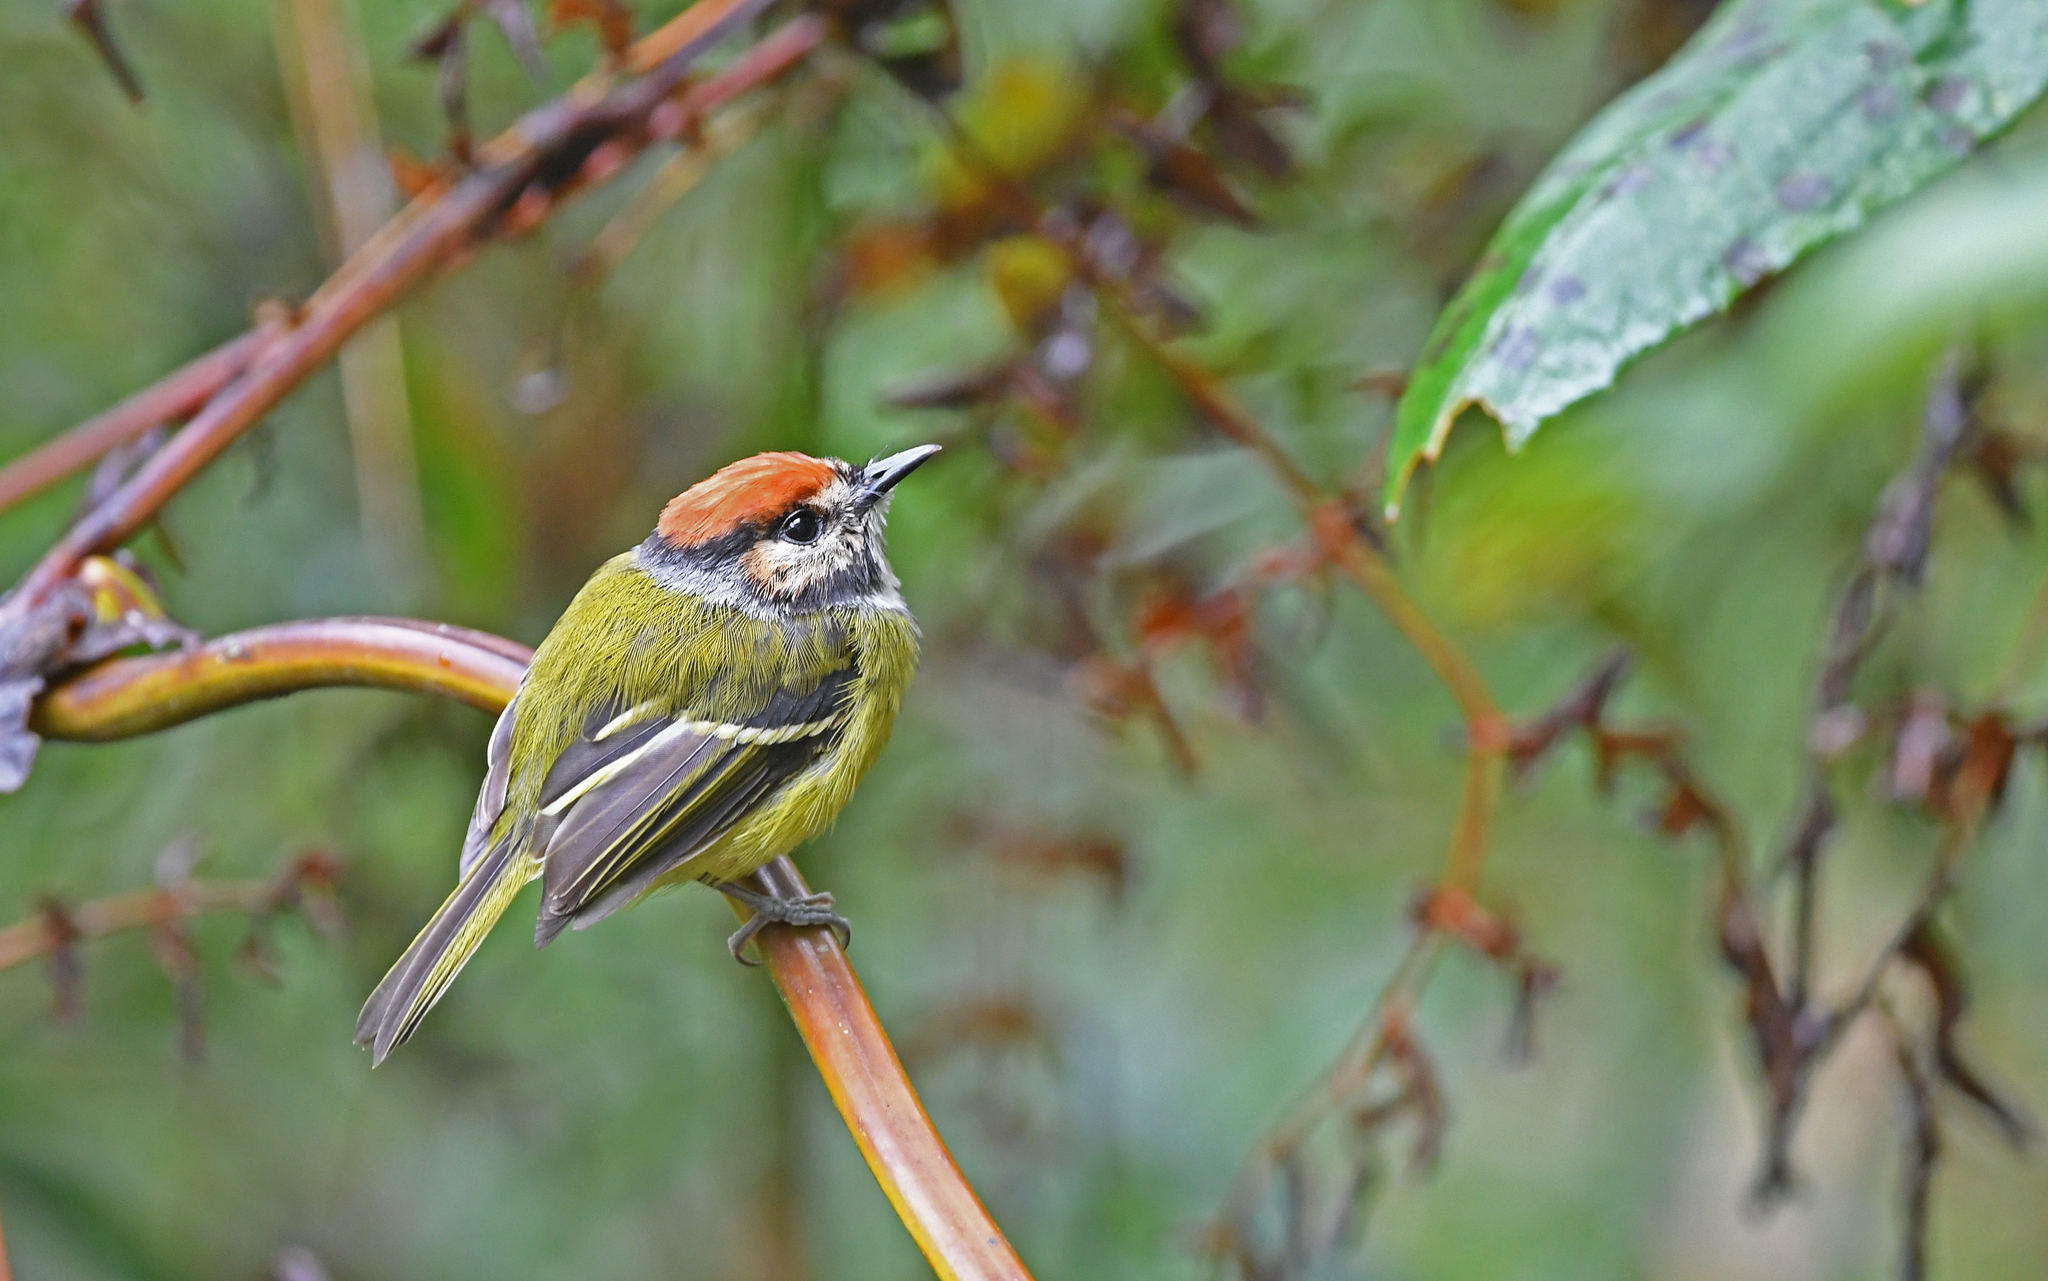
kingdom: Animalia
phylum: Chordata
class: Aves
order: Passeriformes
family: Tyrannidae
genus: Poecilotriccus
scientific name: Poecilotriccus ruficeps
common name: Rufous-crowned tody-flycatcher
